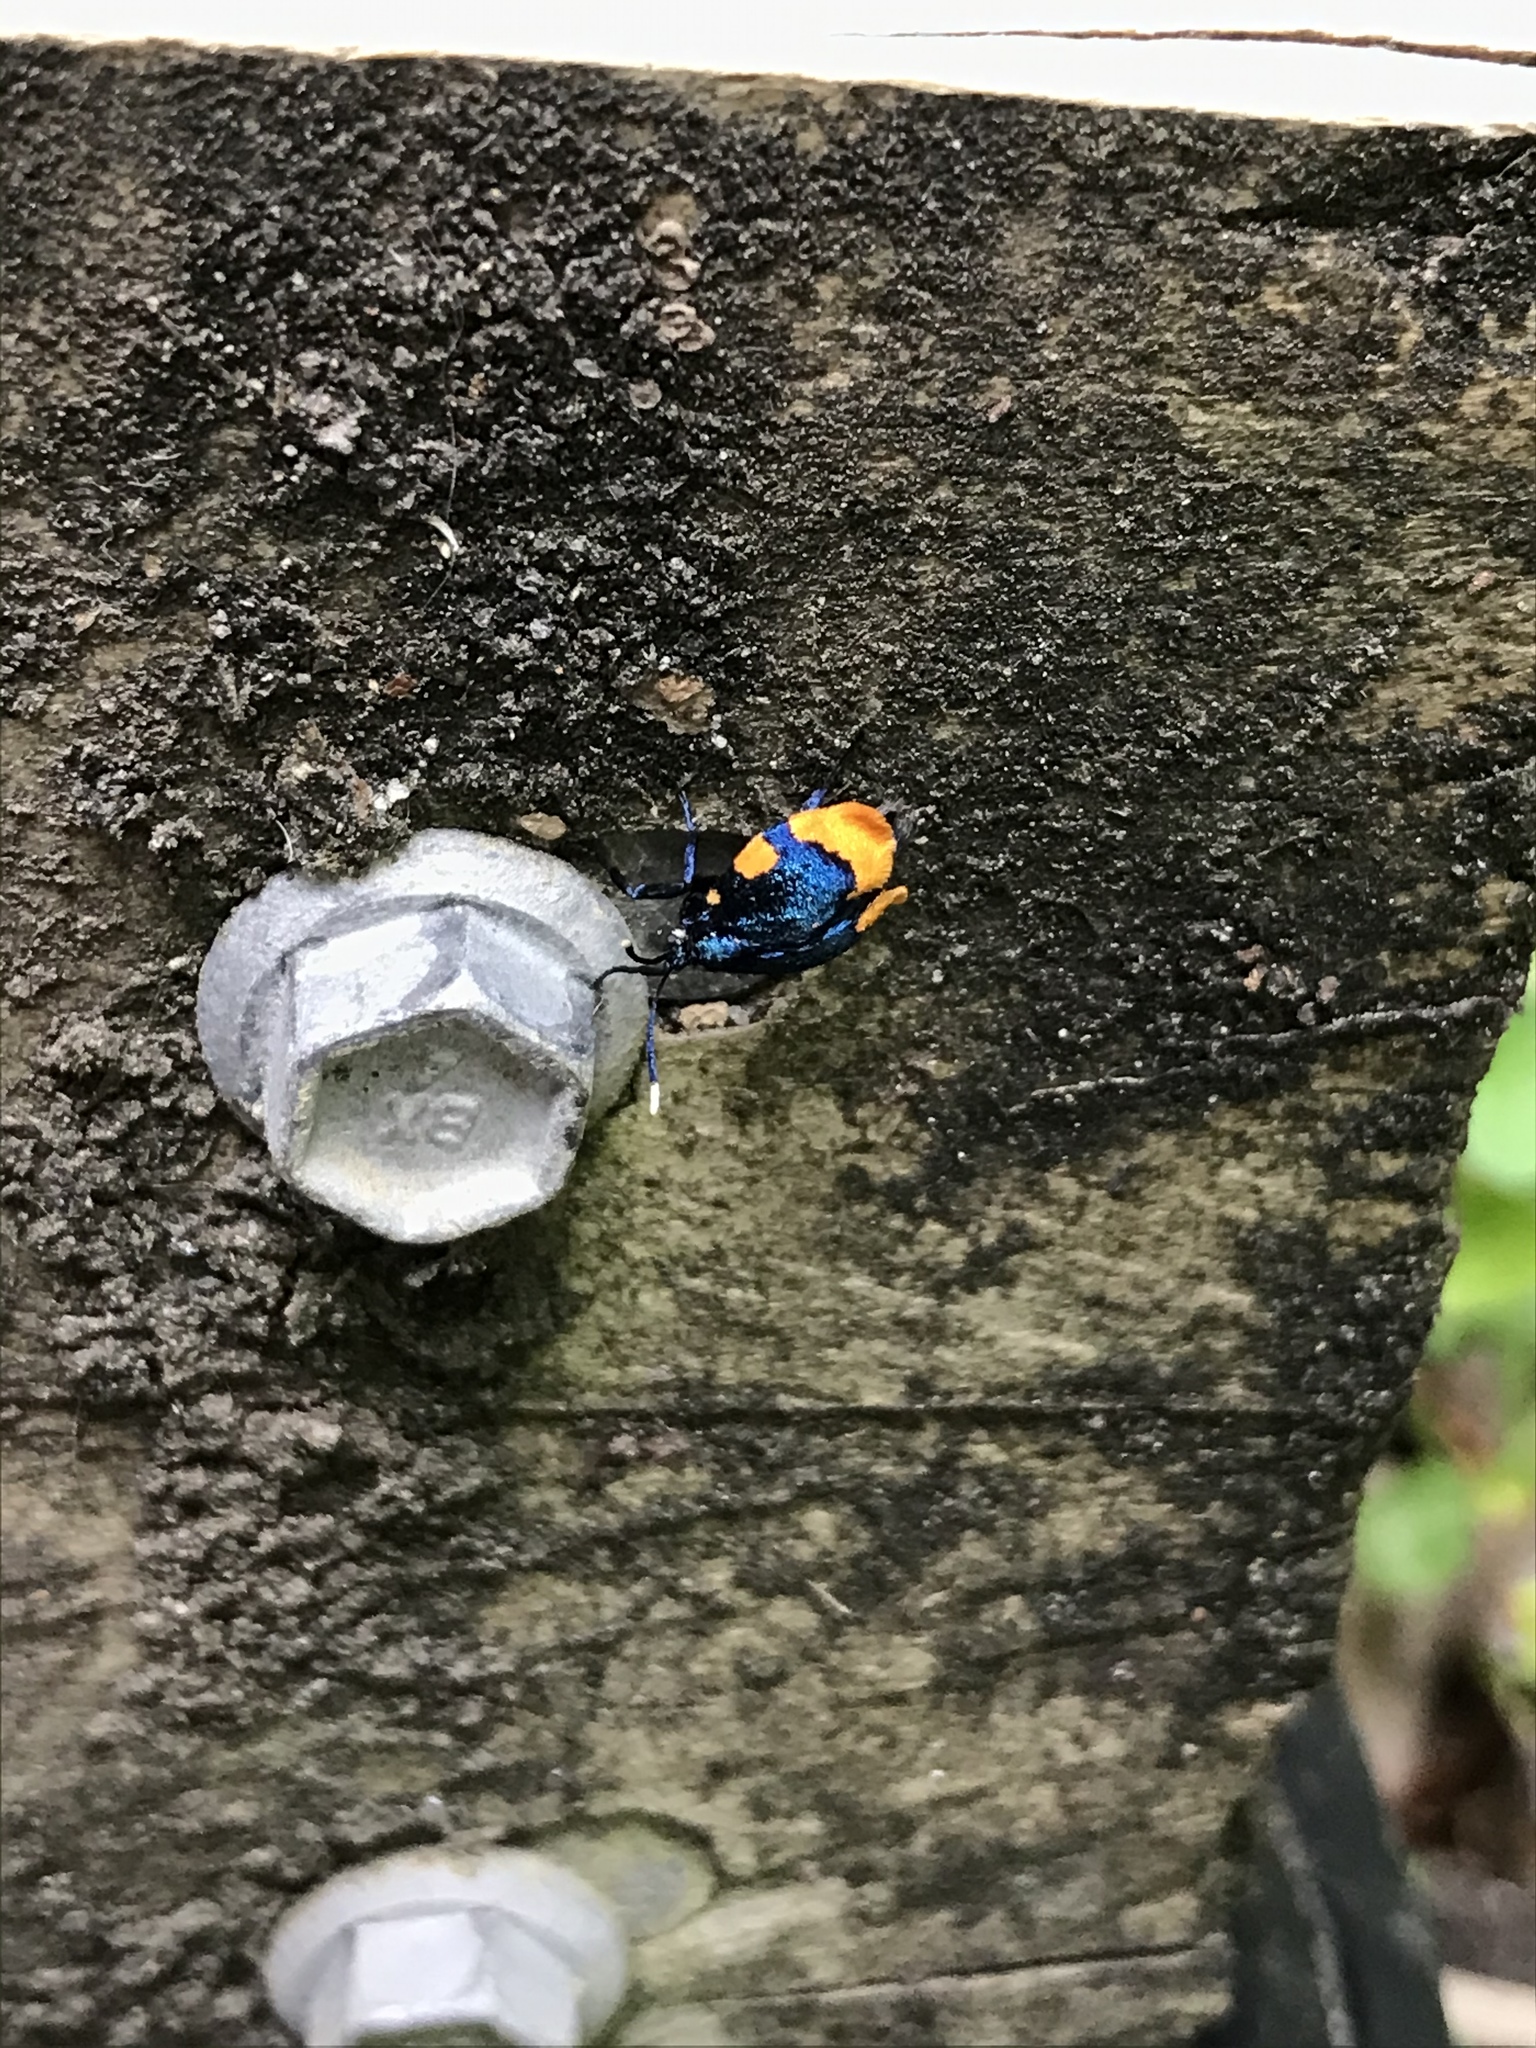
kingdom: Animalia
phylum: Arthropoda
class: Insecta
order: Lepidoptera
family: Psychidae
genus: Cebysa
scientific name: Cebysa leucotelus
